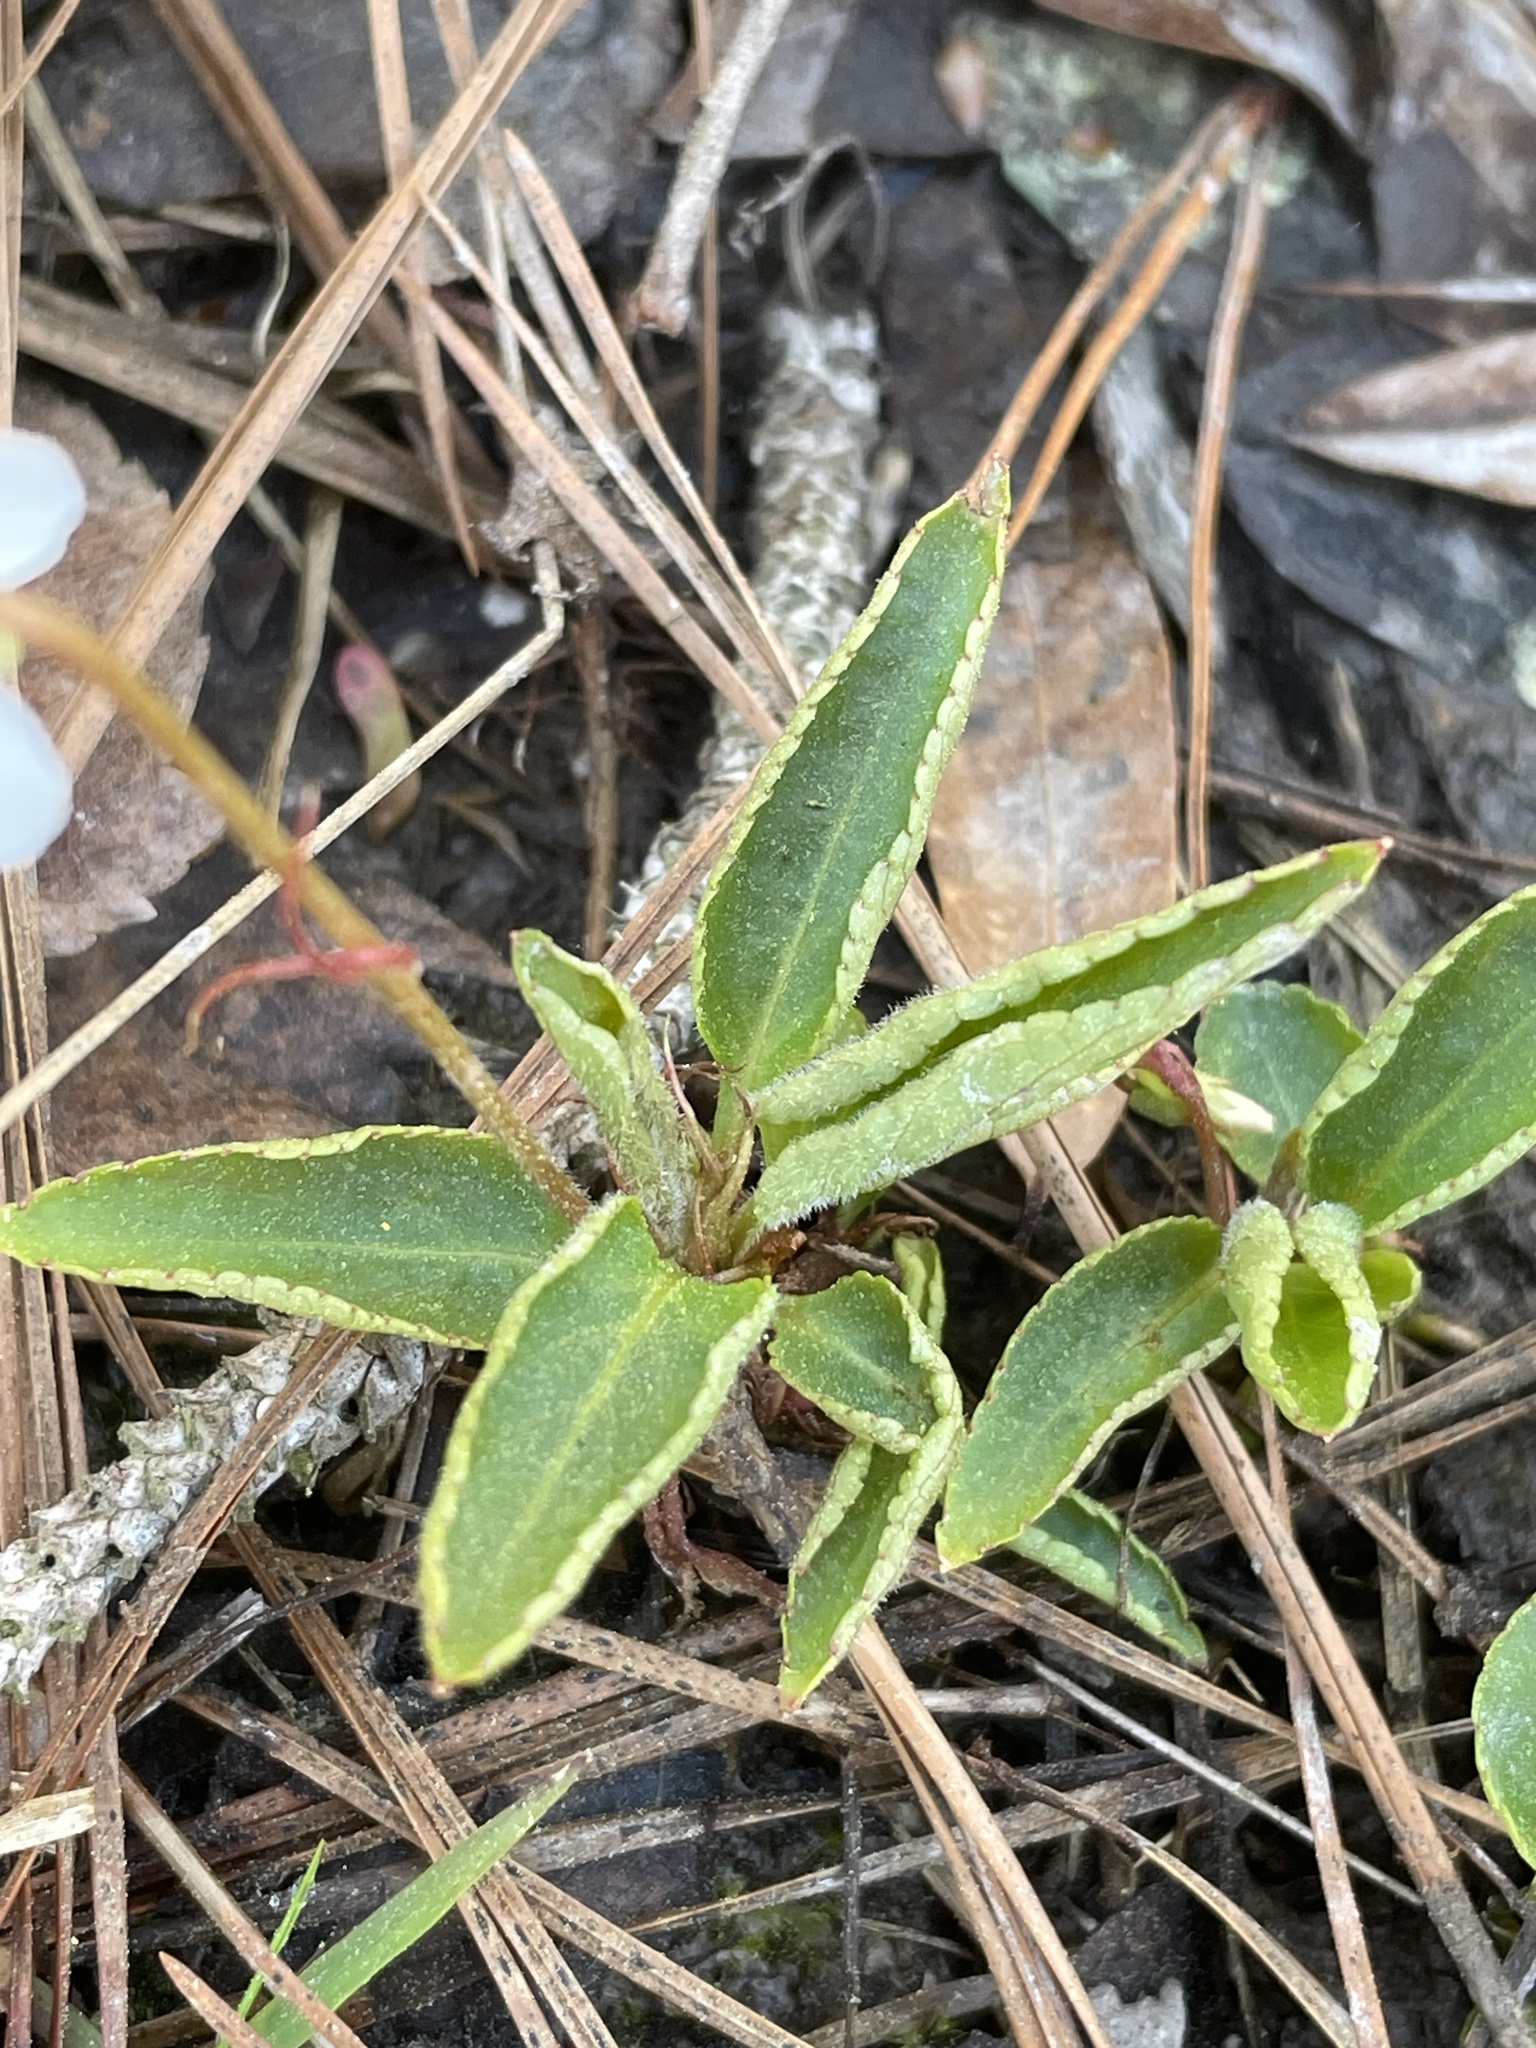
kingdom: Plantae
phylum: Tracheophyta
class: Magnoliopsida
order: Malpighiales
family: Violaceae
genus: Viola
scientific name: Viola primulifolia
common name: Primrose-leaf violet
